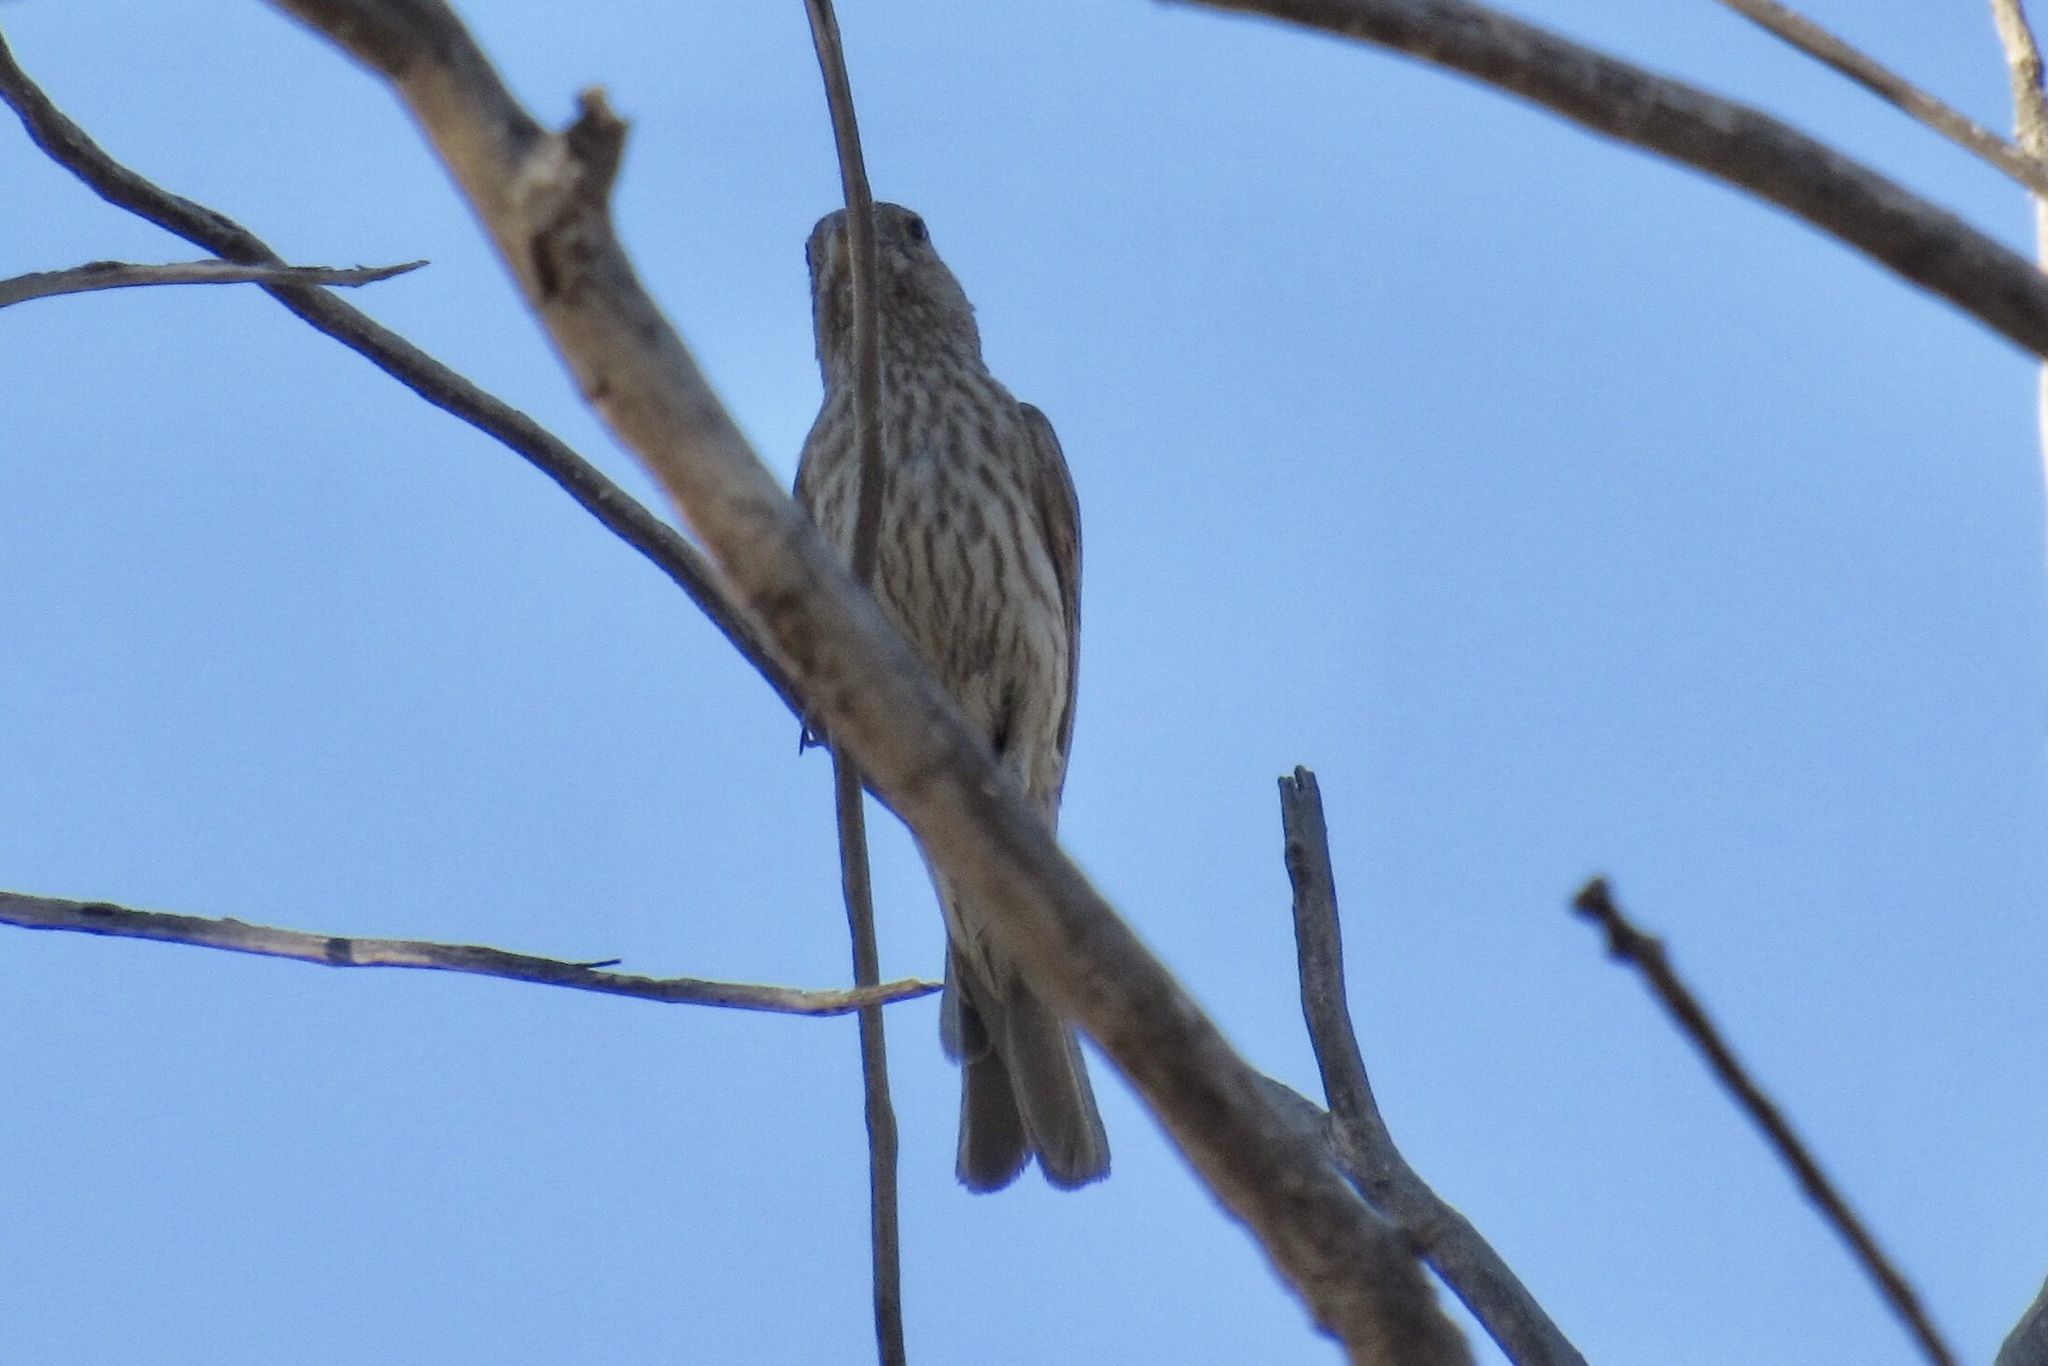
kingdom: Animalia
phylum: Chordata
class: Aves
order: Passeriformes
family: Fringillidae
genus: Haemorhous
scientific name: Haemorhous mexicanus
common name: House finch
